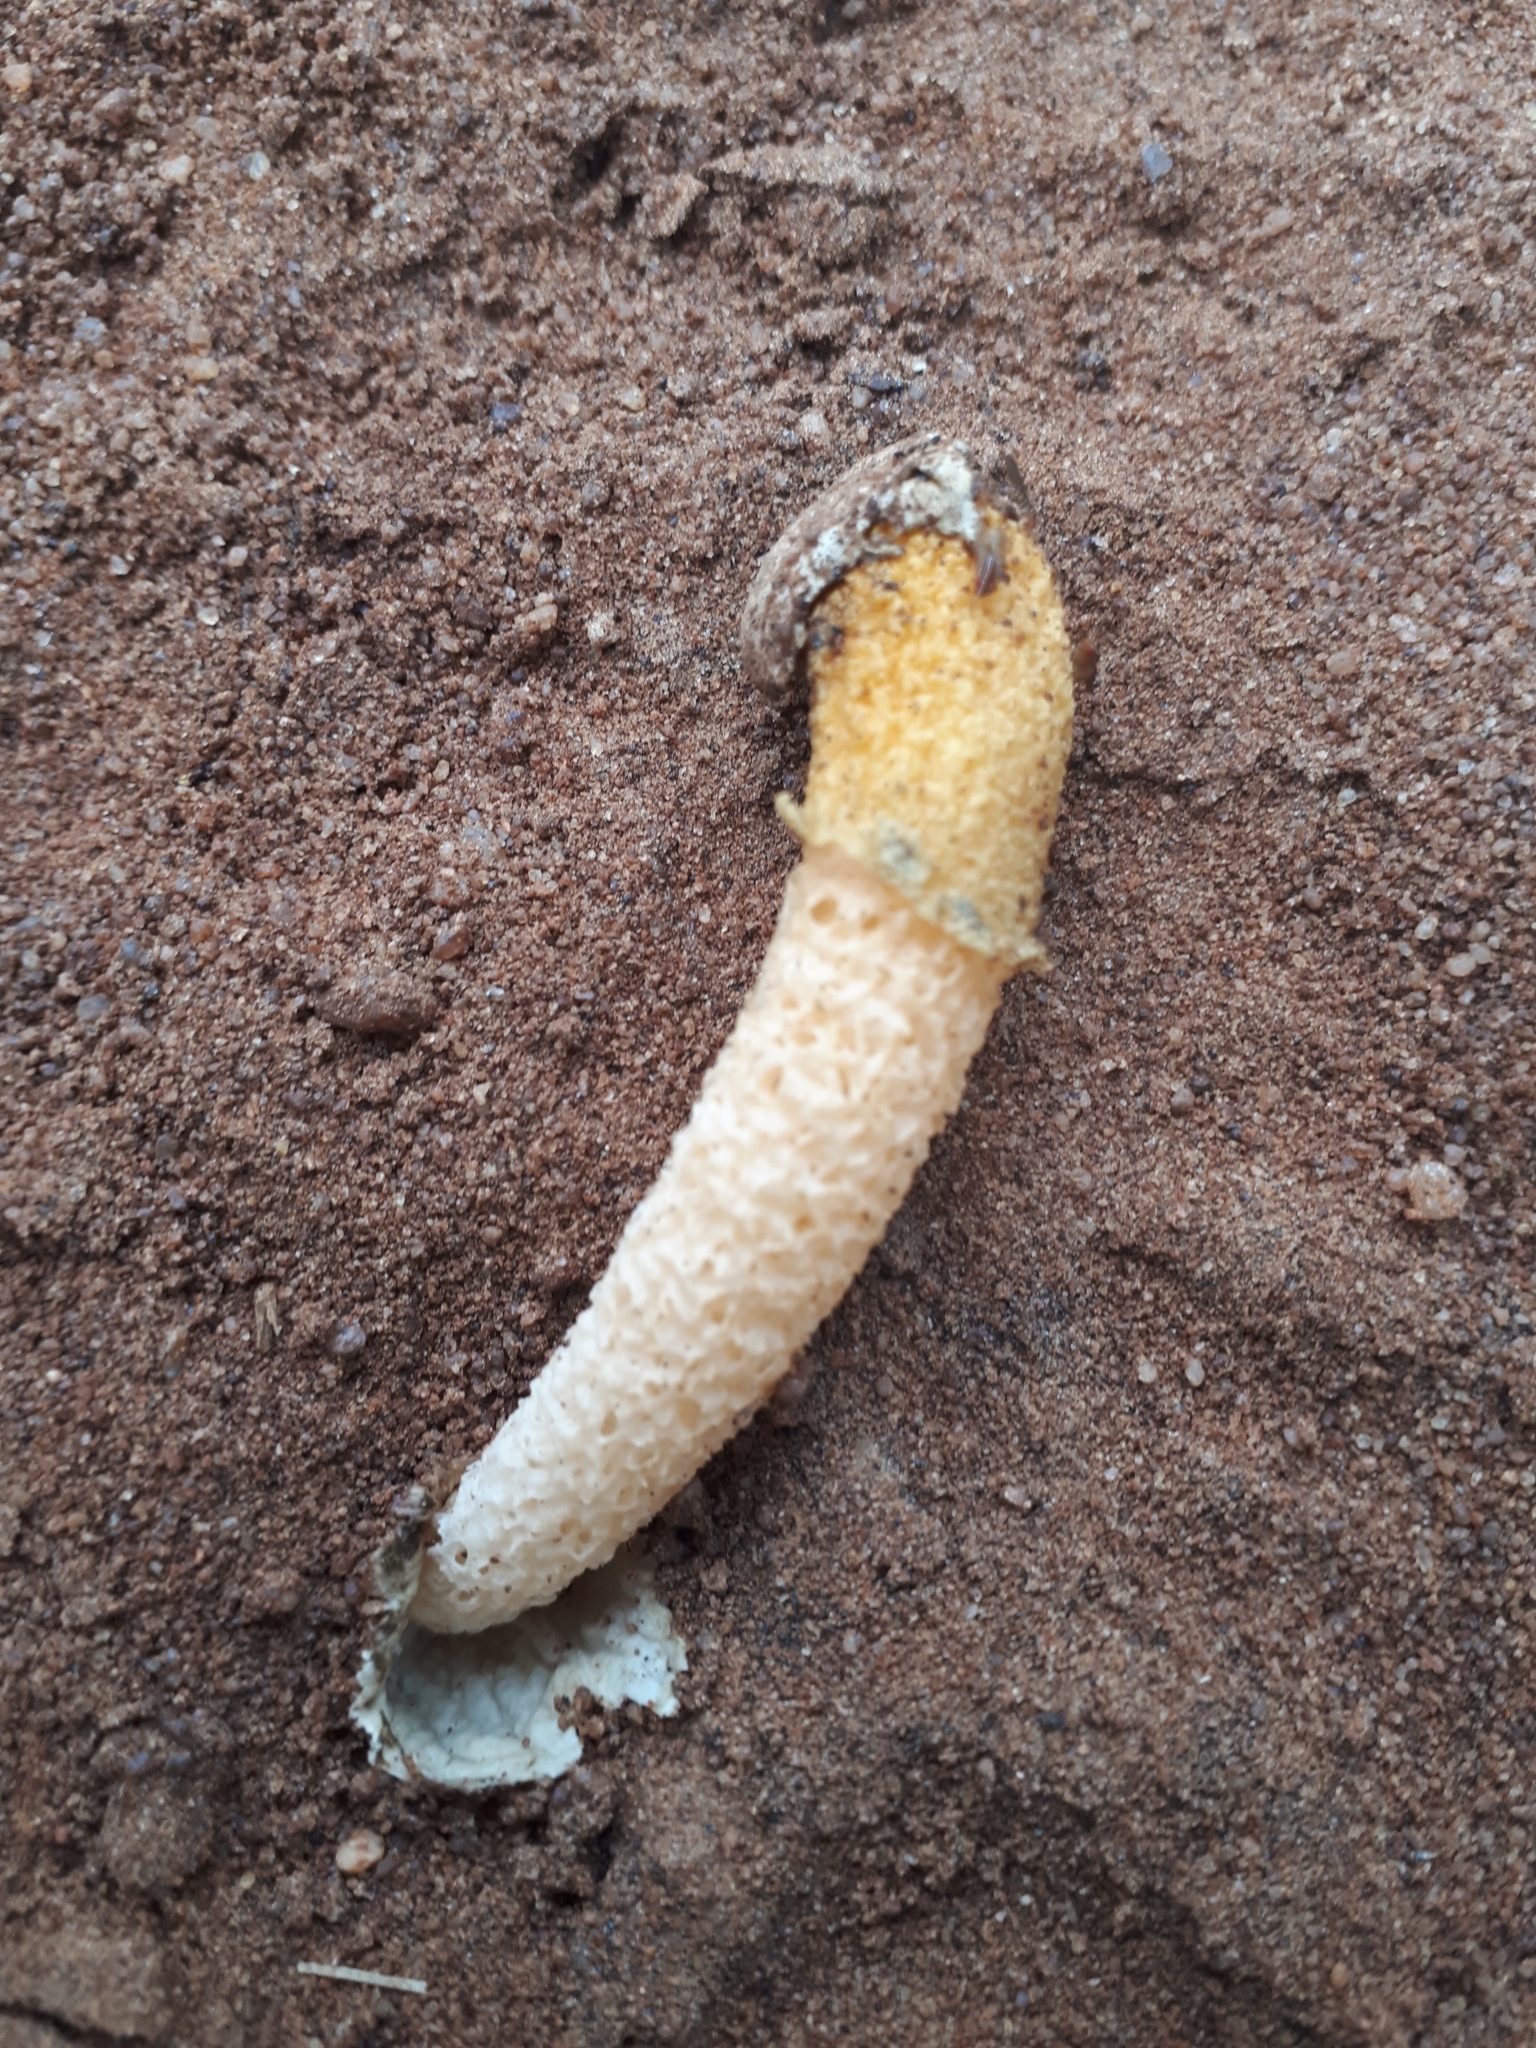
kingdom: Fungi
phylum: Basidiomycota
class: Agaricomycetes
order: Phallales
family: Phallaceae
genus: Phallus
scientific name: Phallus
